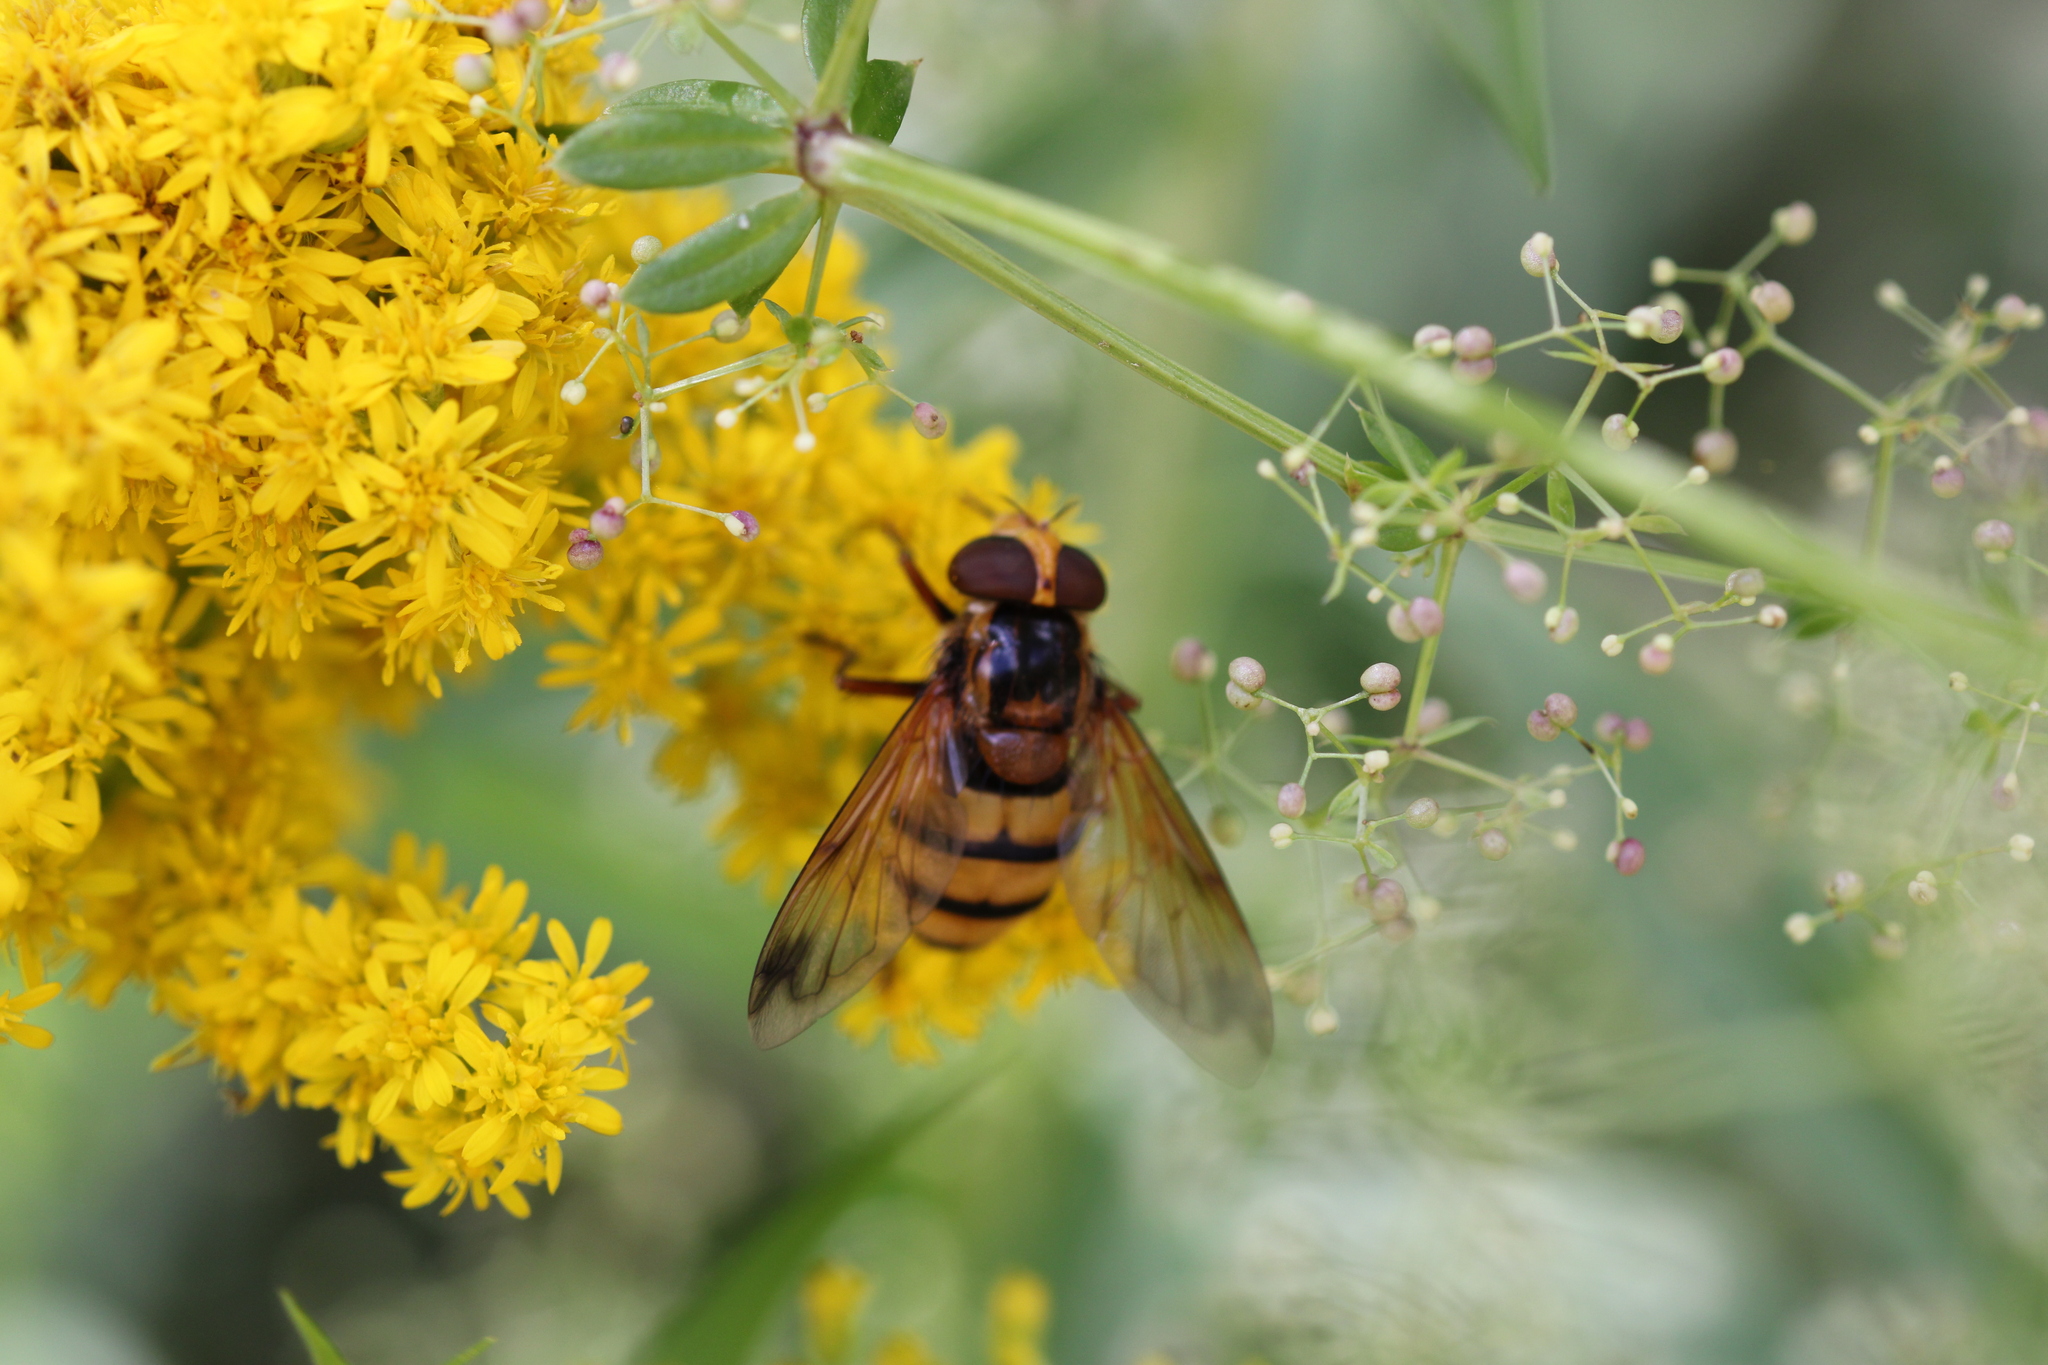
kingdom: Animalia
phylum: Arthropoda
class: Insecta
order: Diptera
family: Syrphidae
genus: Volucella
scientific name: Volucella inanis
